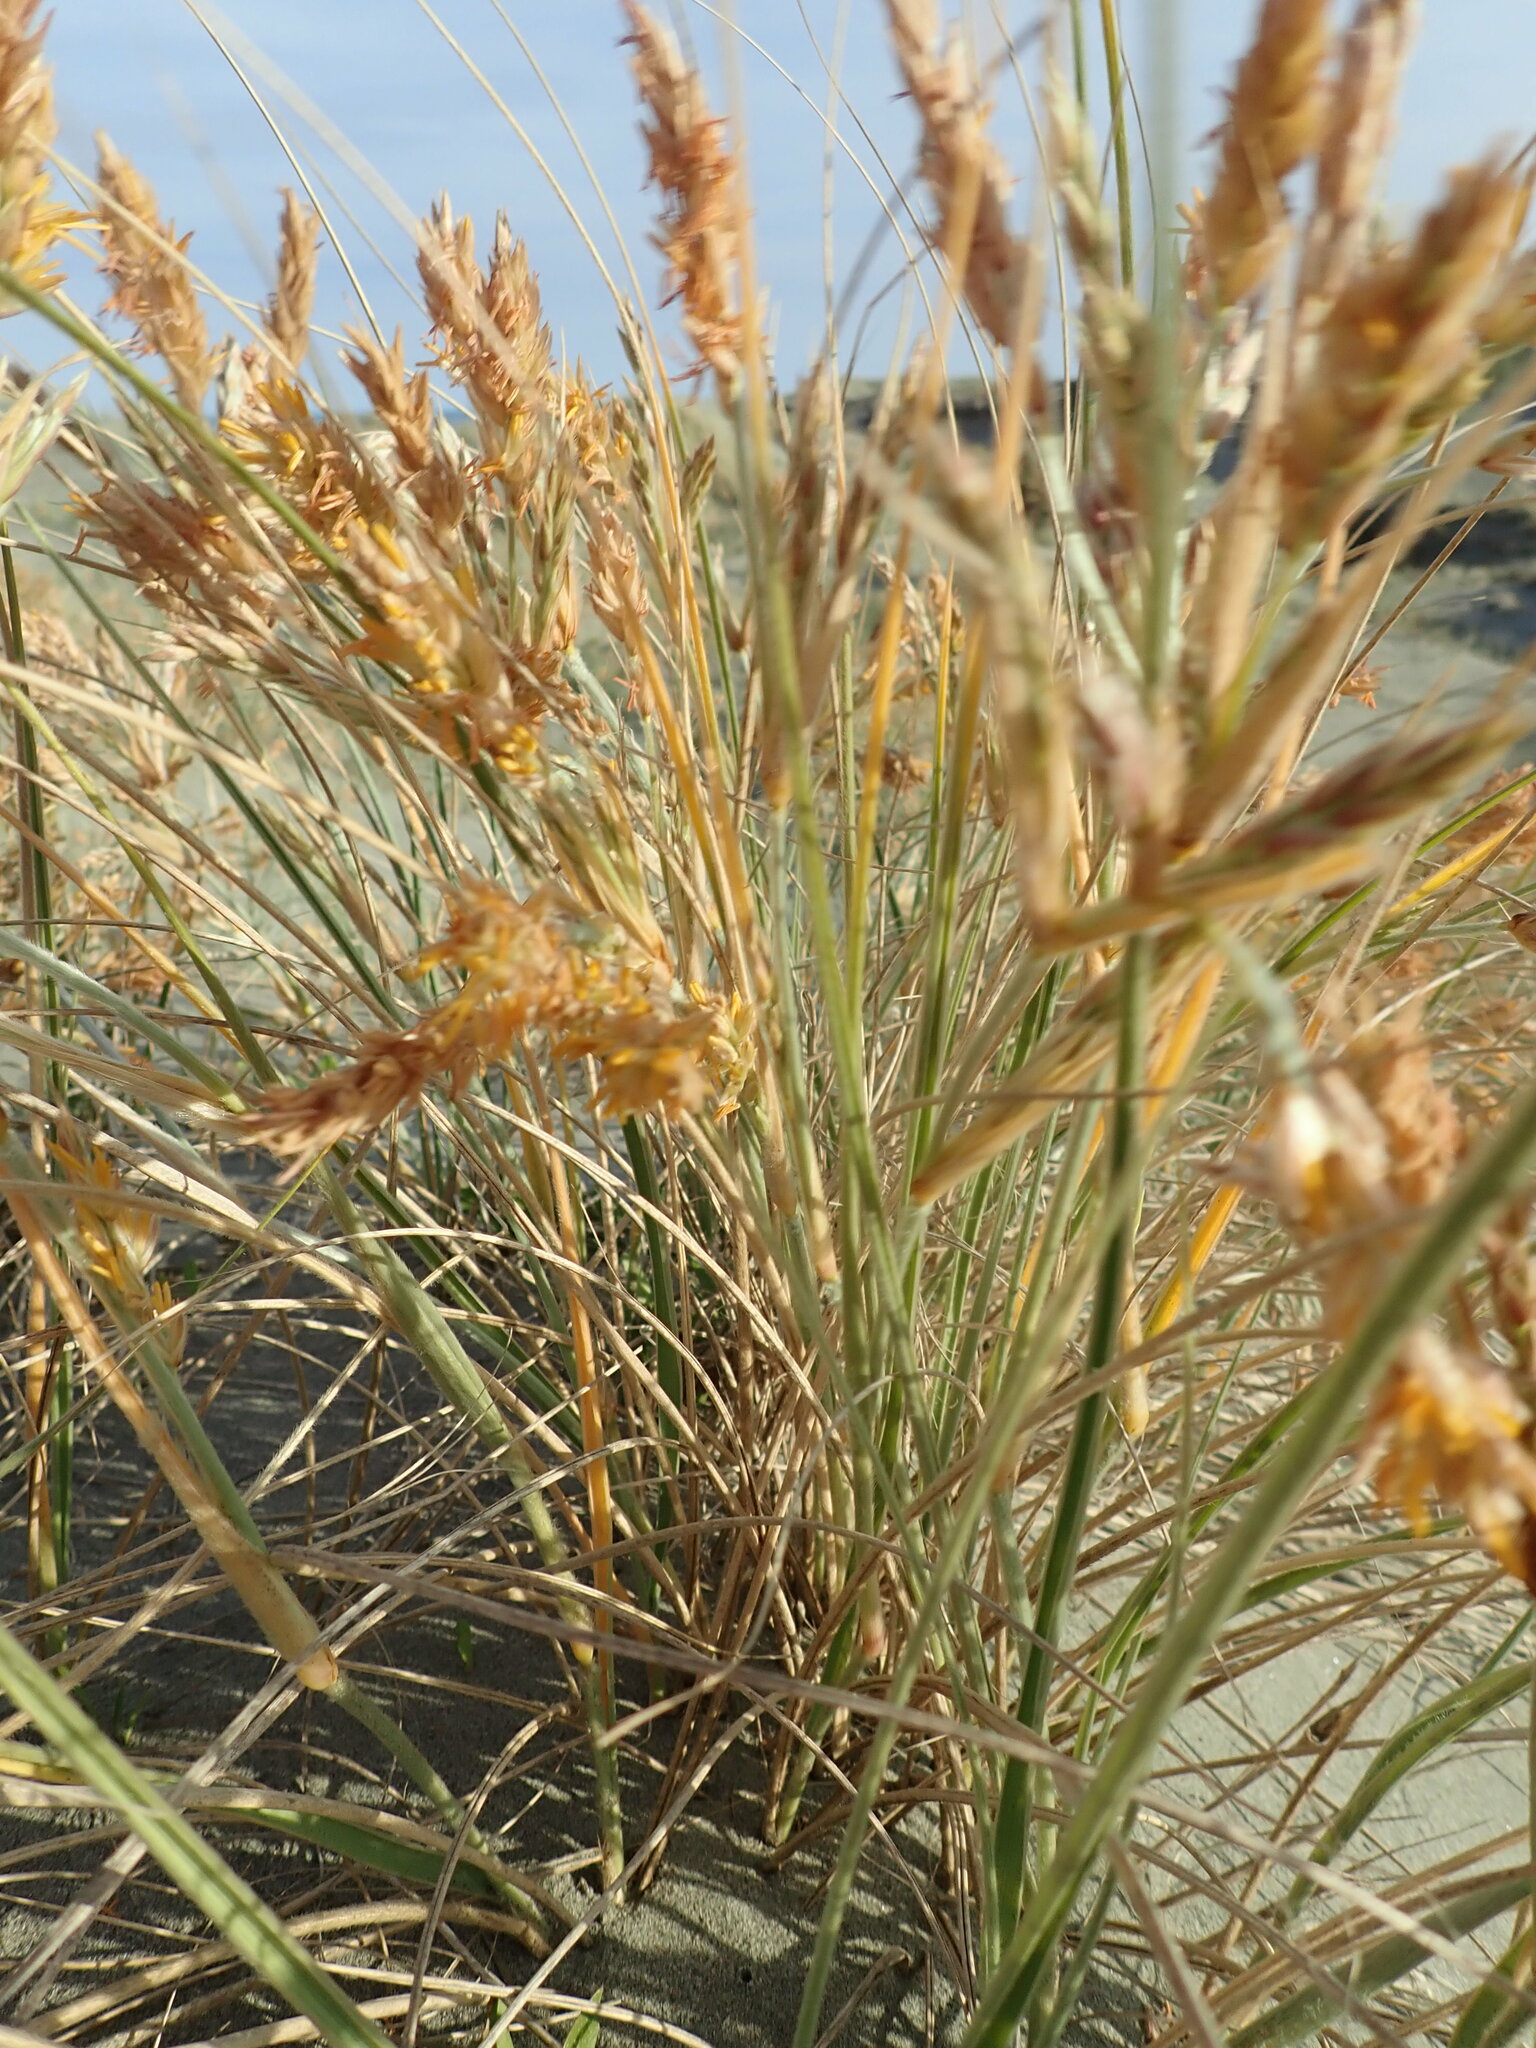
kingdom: Plantae
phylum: Tracheophyta
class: Liliopsida
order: Poales
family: Poaceae
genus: Spinifex
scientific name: Spinifex sericeus
